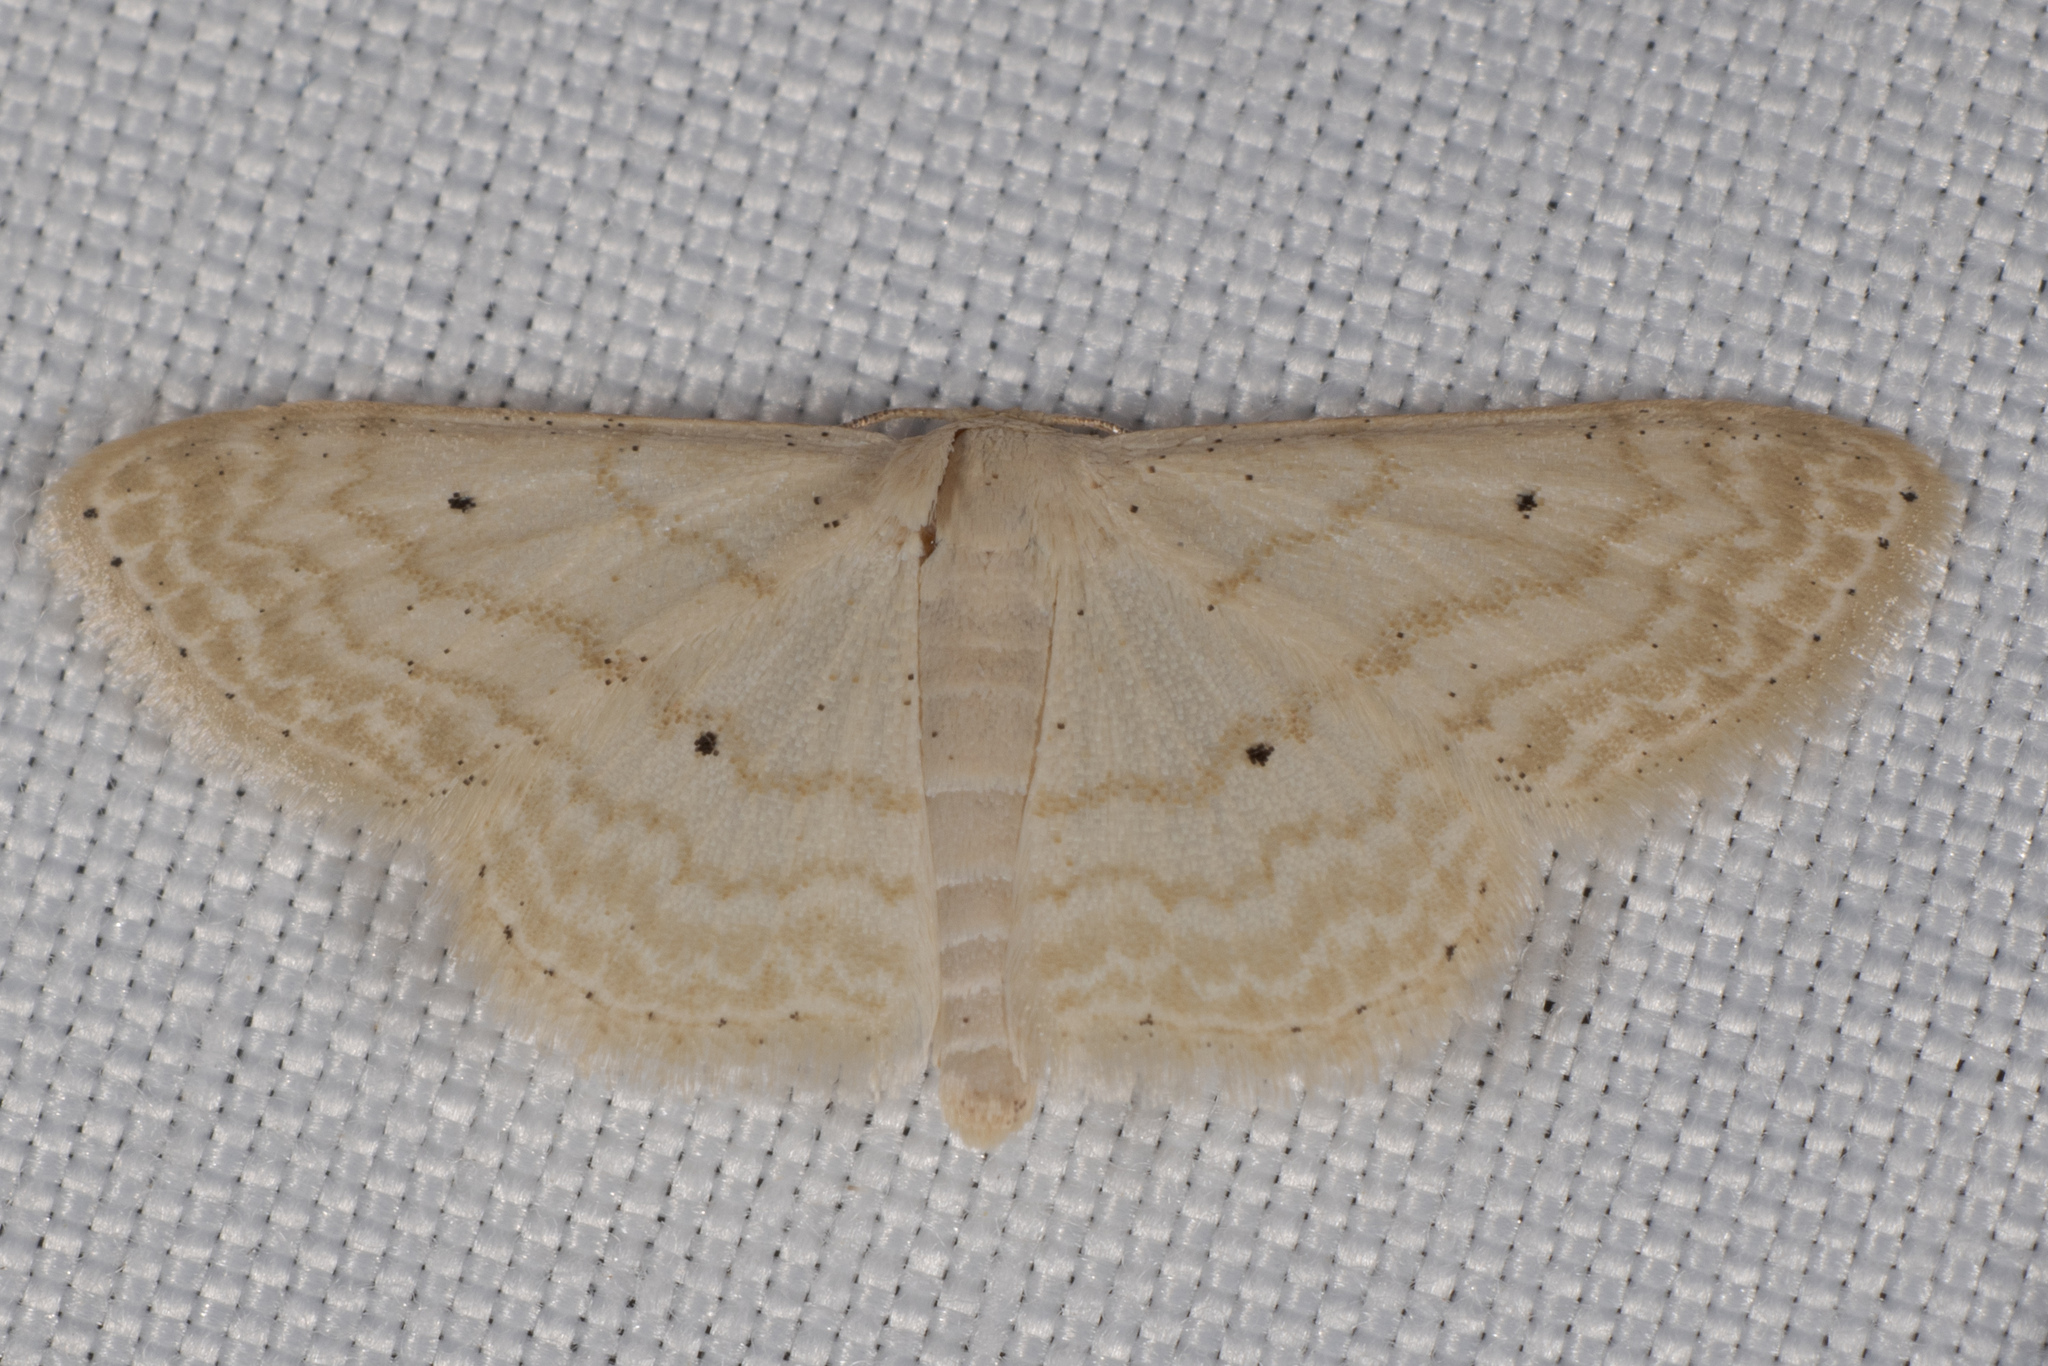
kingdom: Animalia
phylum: Arthropoda
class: Insecta
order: Lepidoptera
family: Geometridae
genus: Scopula
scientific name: Scopula benitaria
